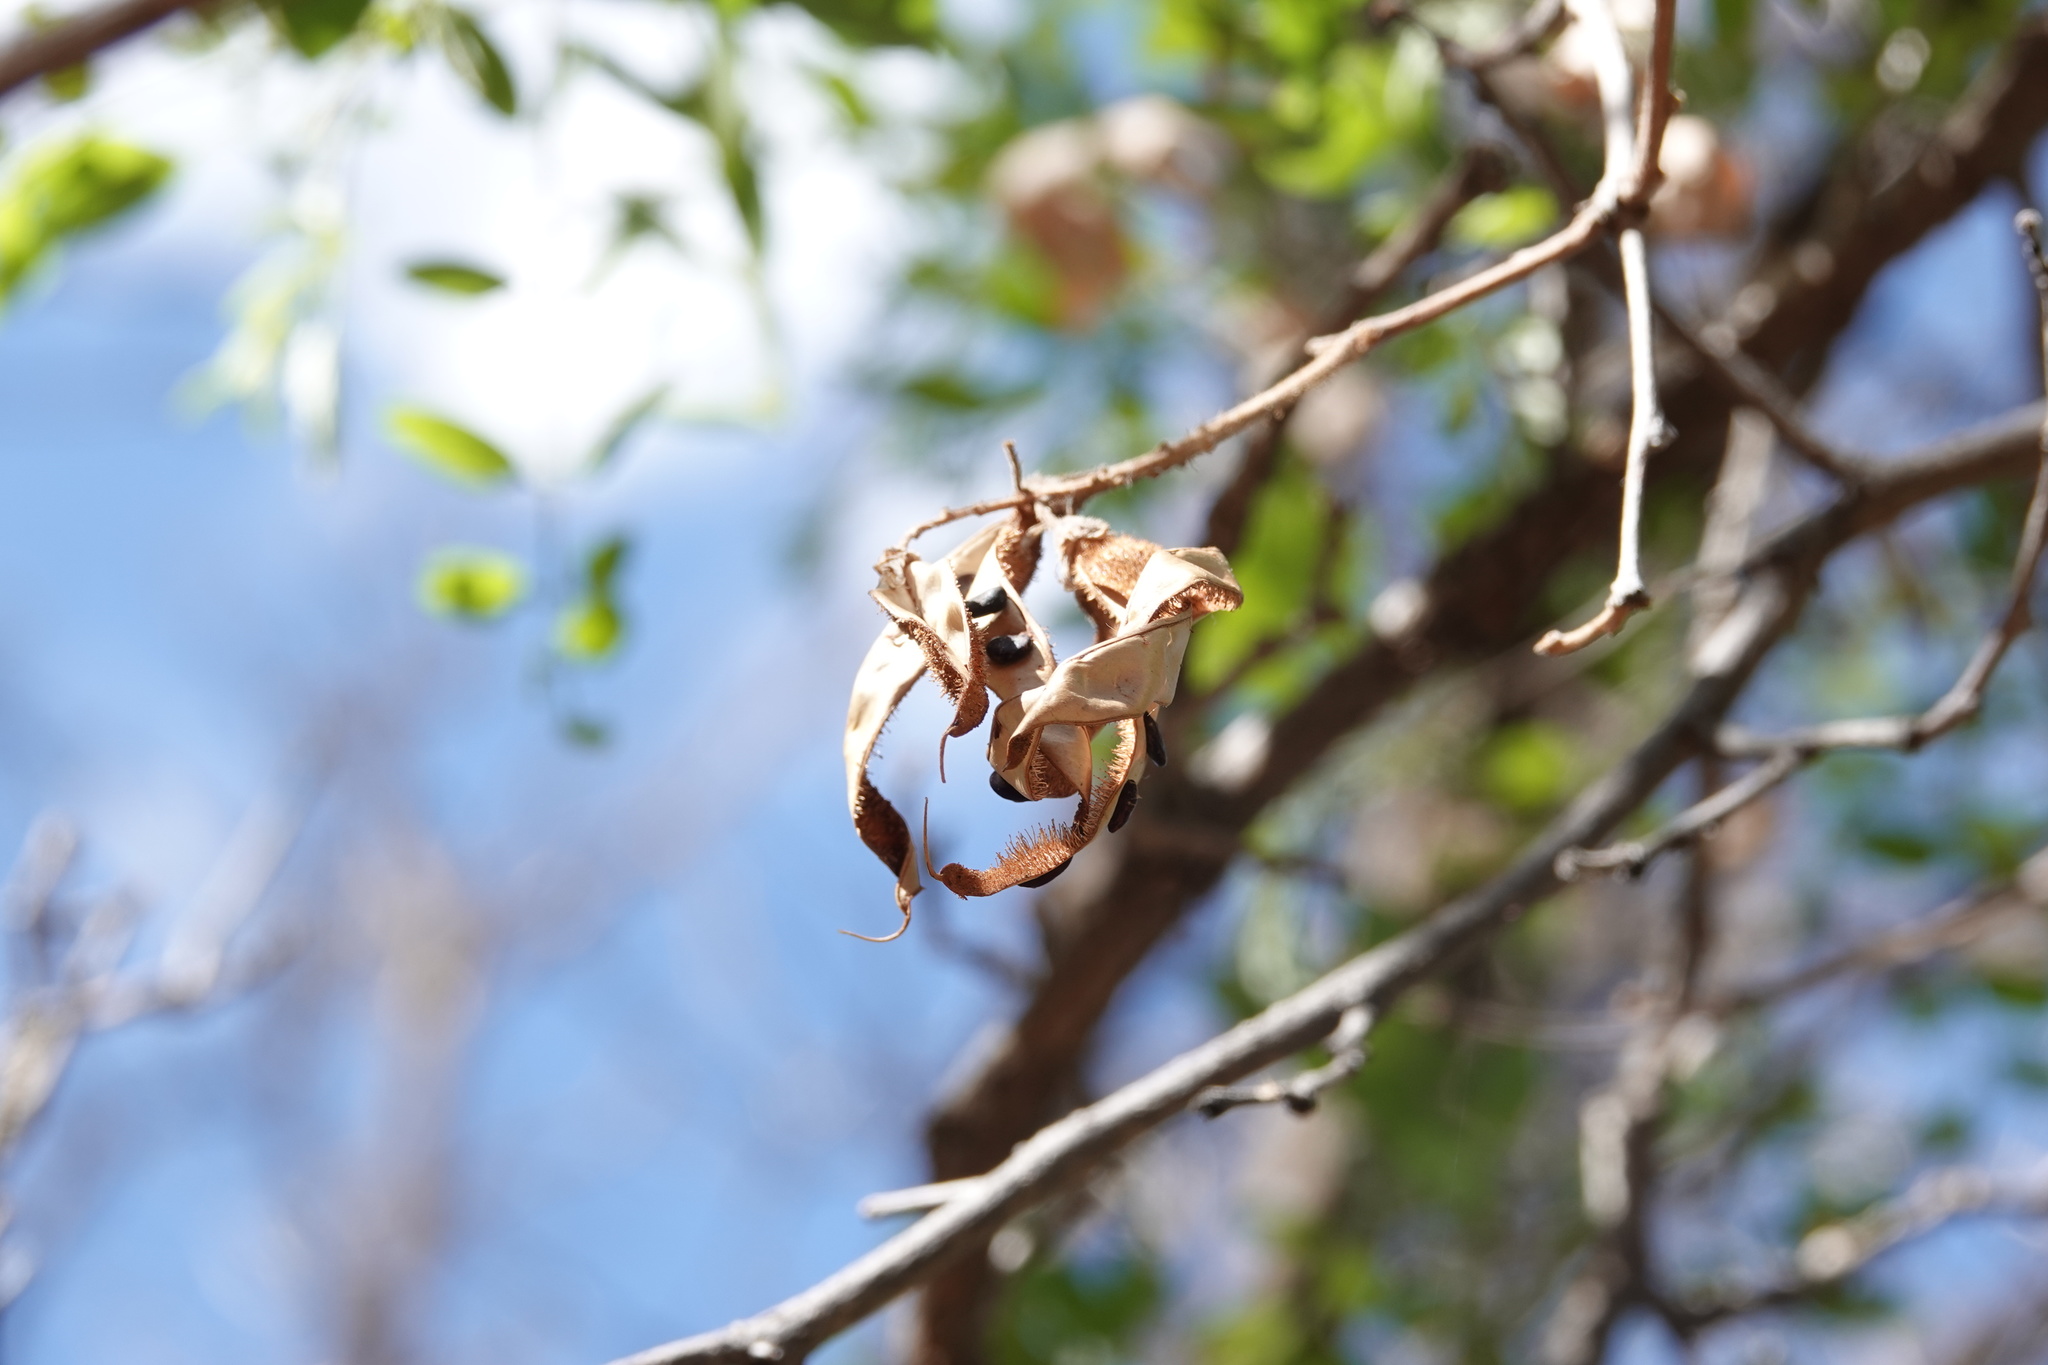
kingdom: Plantae
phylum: Tracheophyta
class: Magnoliopsida
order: Fabales
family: Fabaceae
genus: Robinia
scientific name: Robinia neomexicana
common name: New mexico locust
